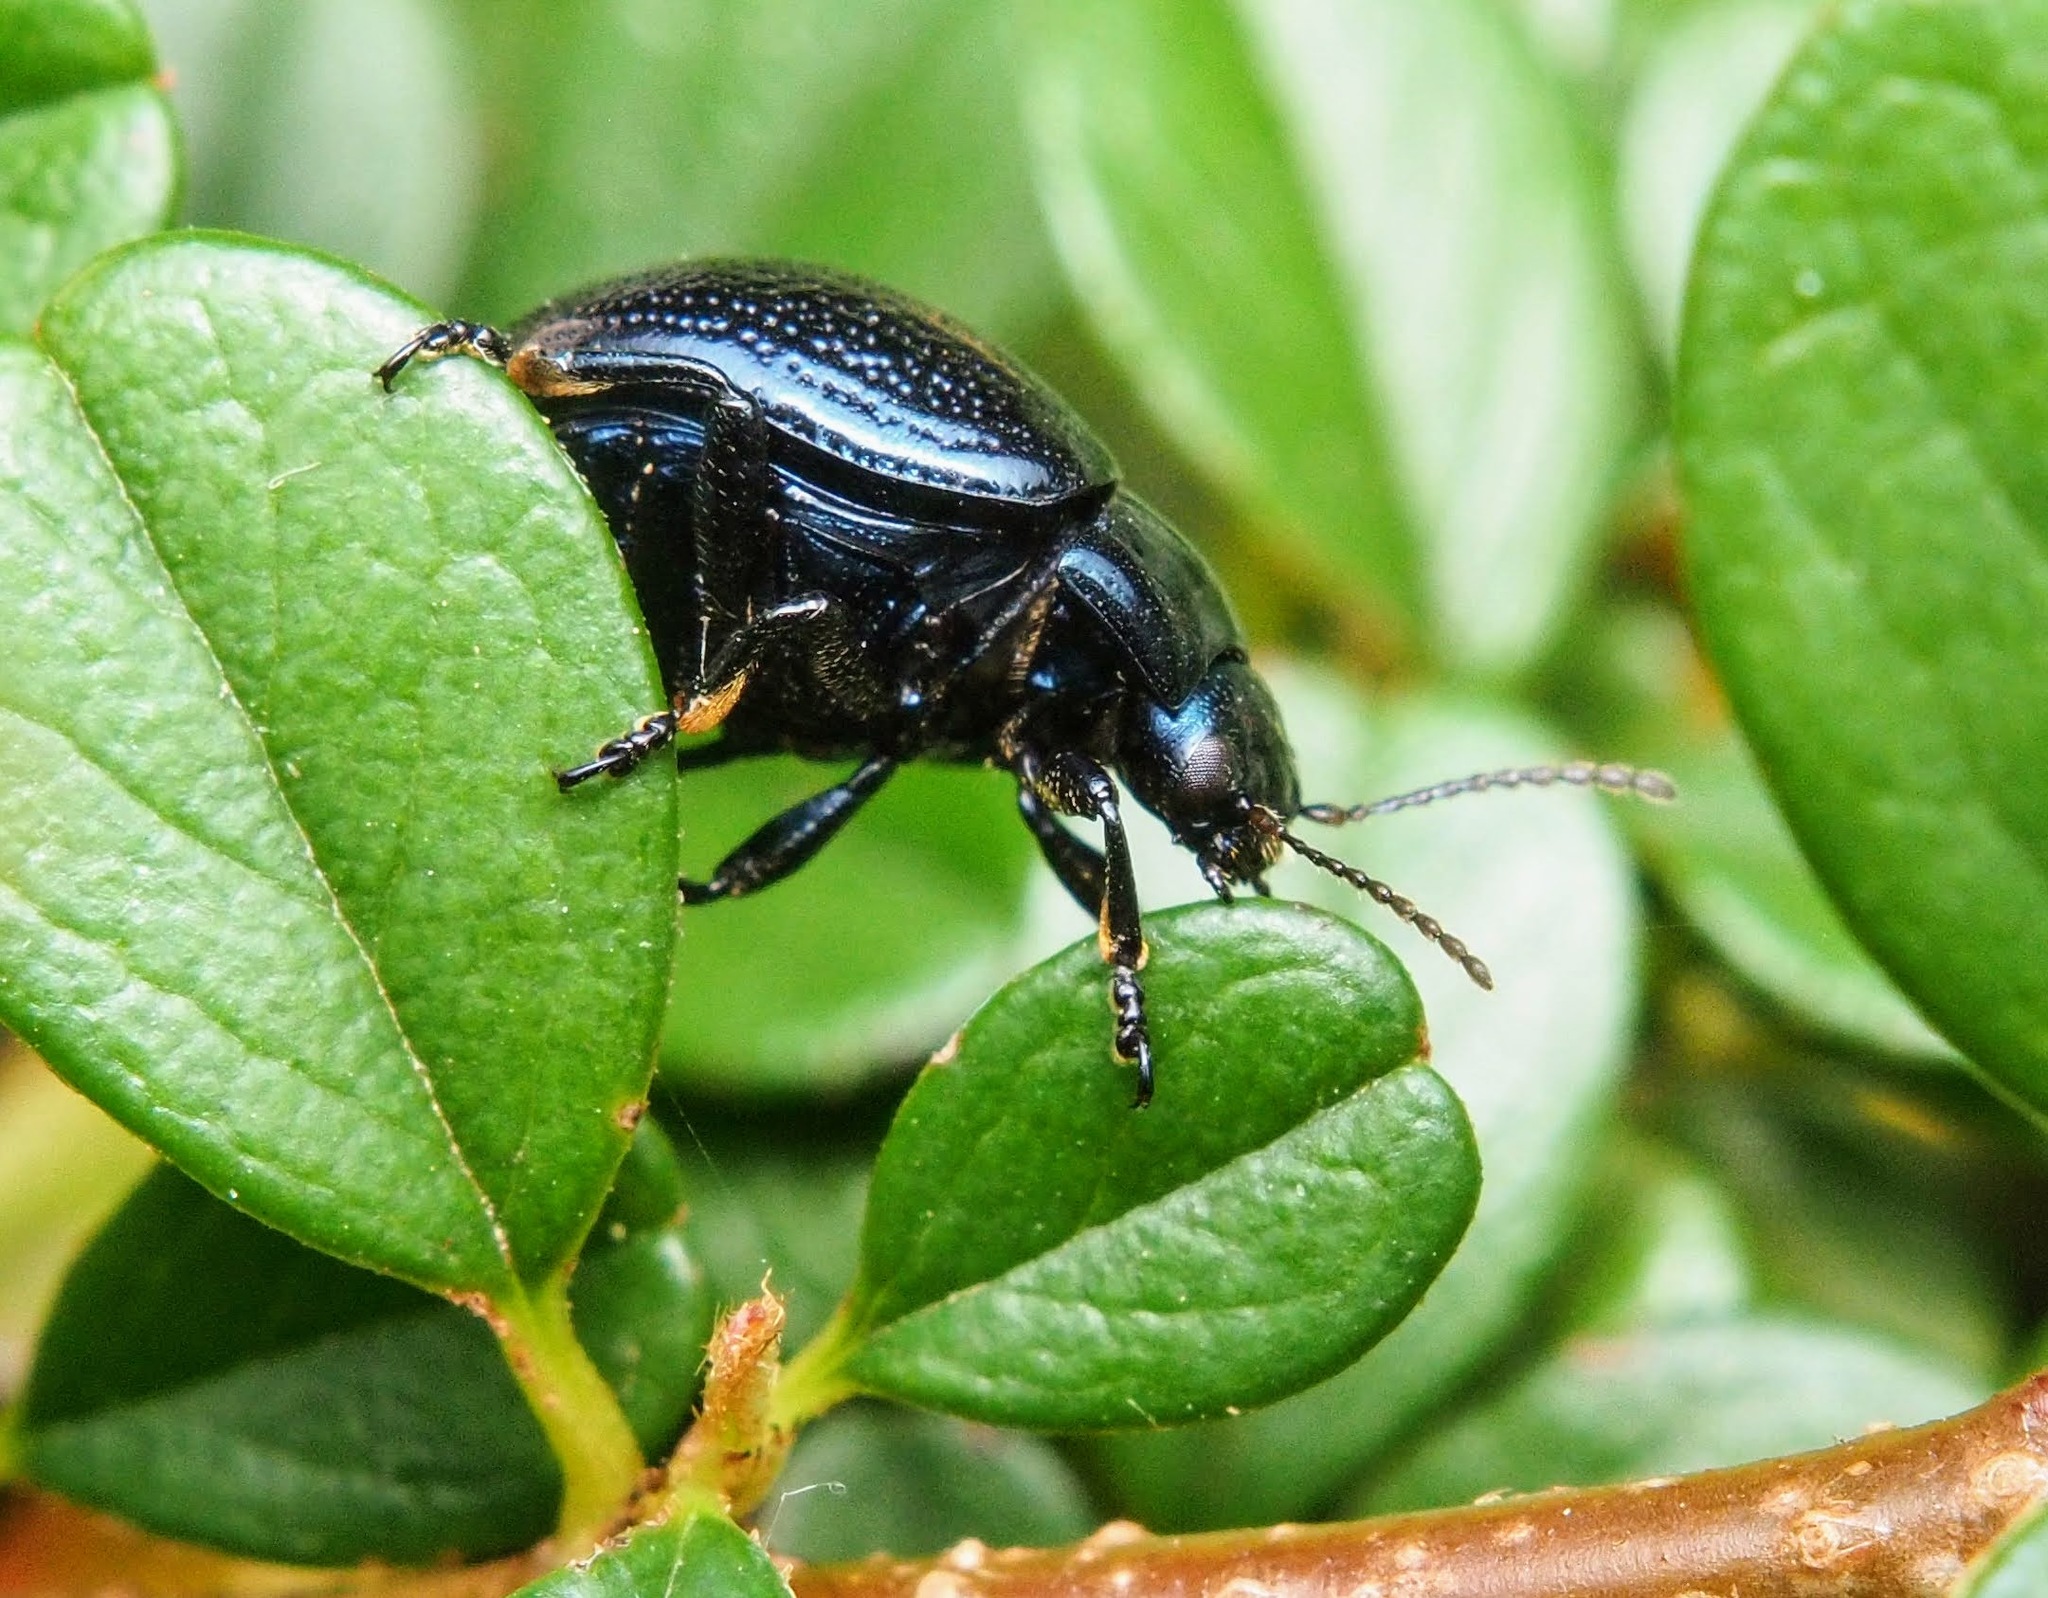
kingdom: Animalia
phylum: Arthropoda
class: Insecta
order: Coleoptera
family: Chrysomelidae
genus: Chrysolina
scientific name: Chrysolina haemoptera
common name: Plantain leaf beetle
